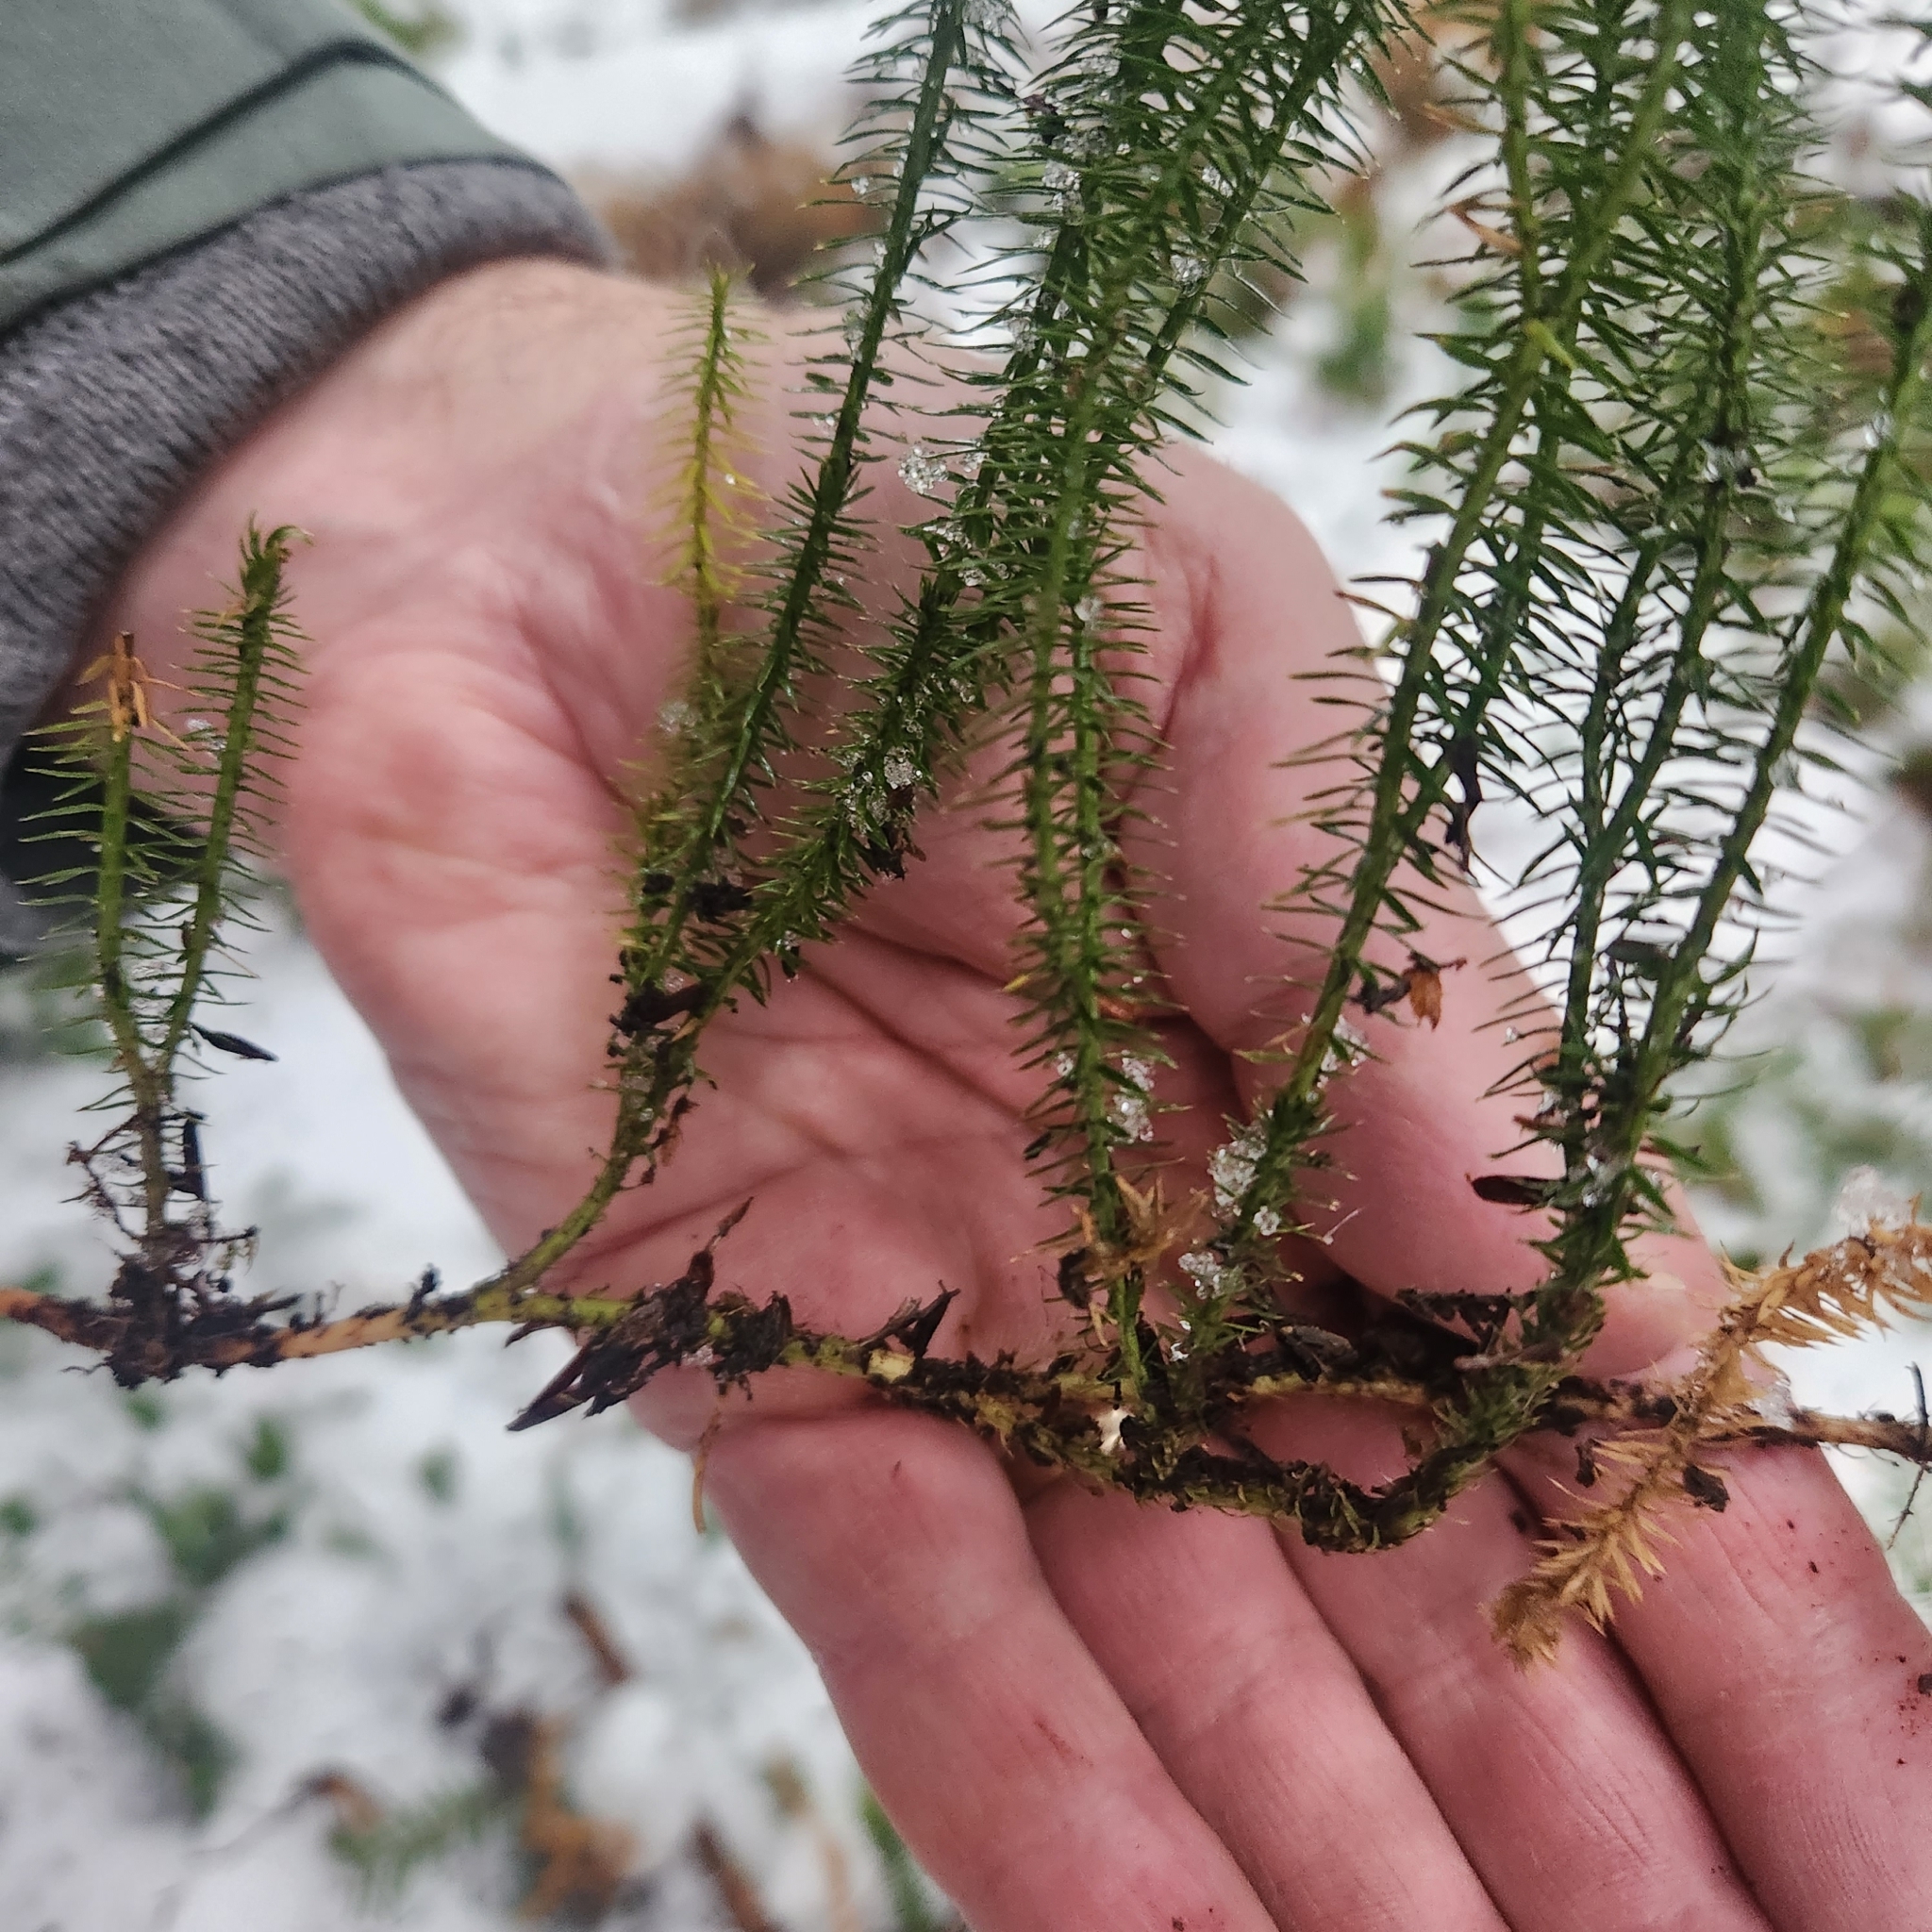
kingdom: Plantae
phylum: Tracheophyta
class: Lycopodiopsida
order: Lycopodiales
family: Lycopodiaceae
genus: Spinulum
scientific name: Spinulum annotinum
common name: Interrupted club-moss
